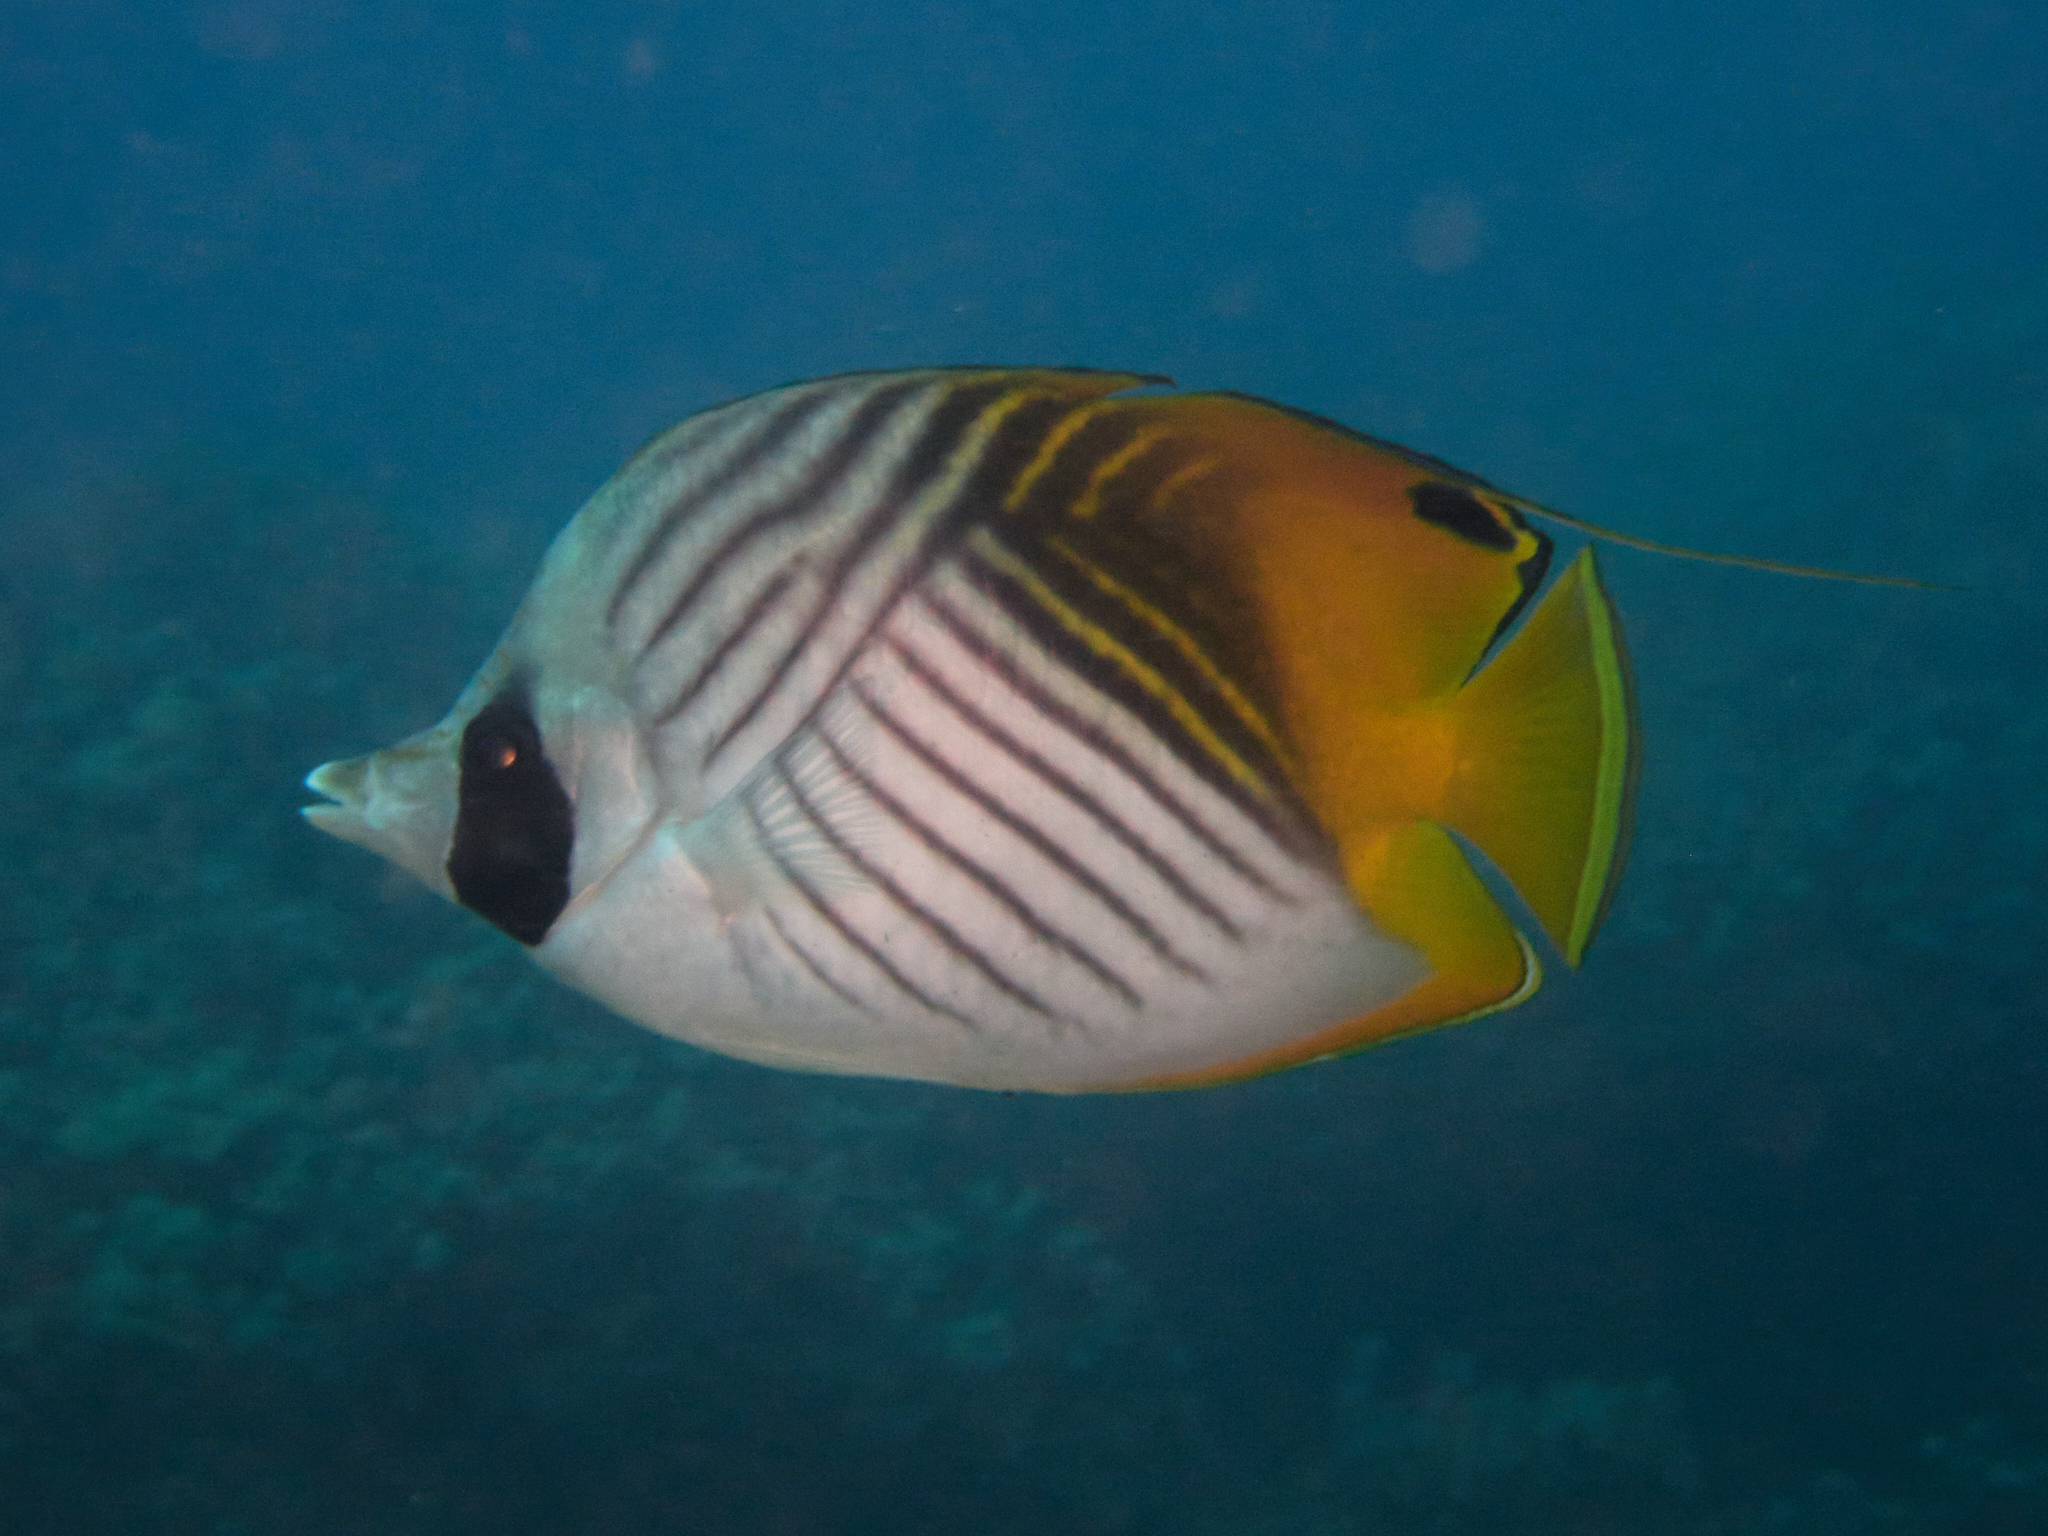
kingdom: Animalia
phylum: Chordata
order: Perciformes
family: Chaetodontidae
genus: Chaetodon
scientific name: Chaetodon auriga
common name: Threadfin butterflyfish
